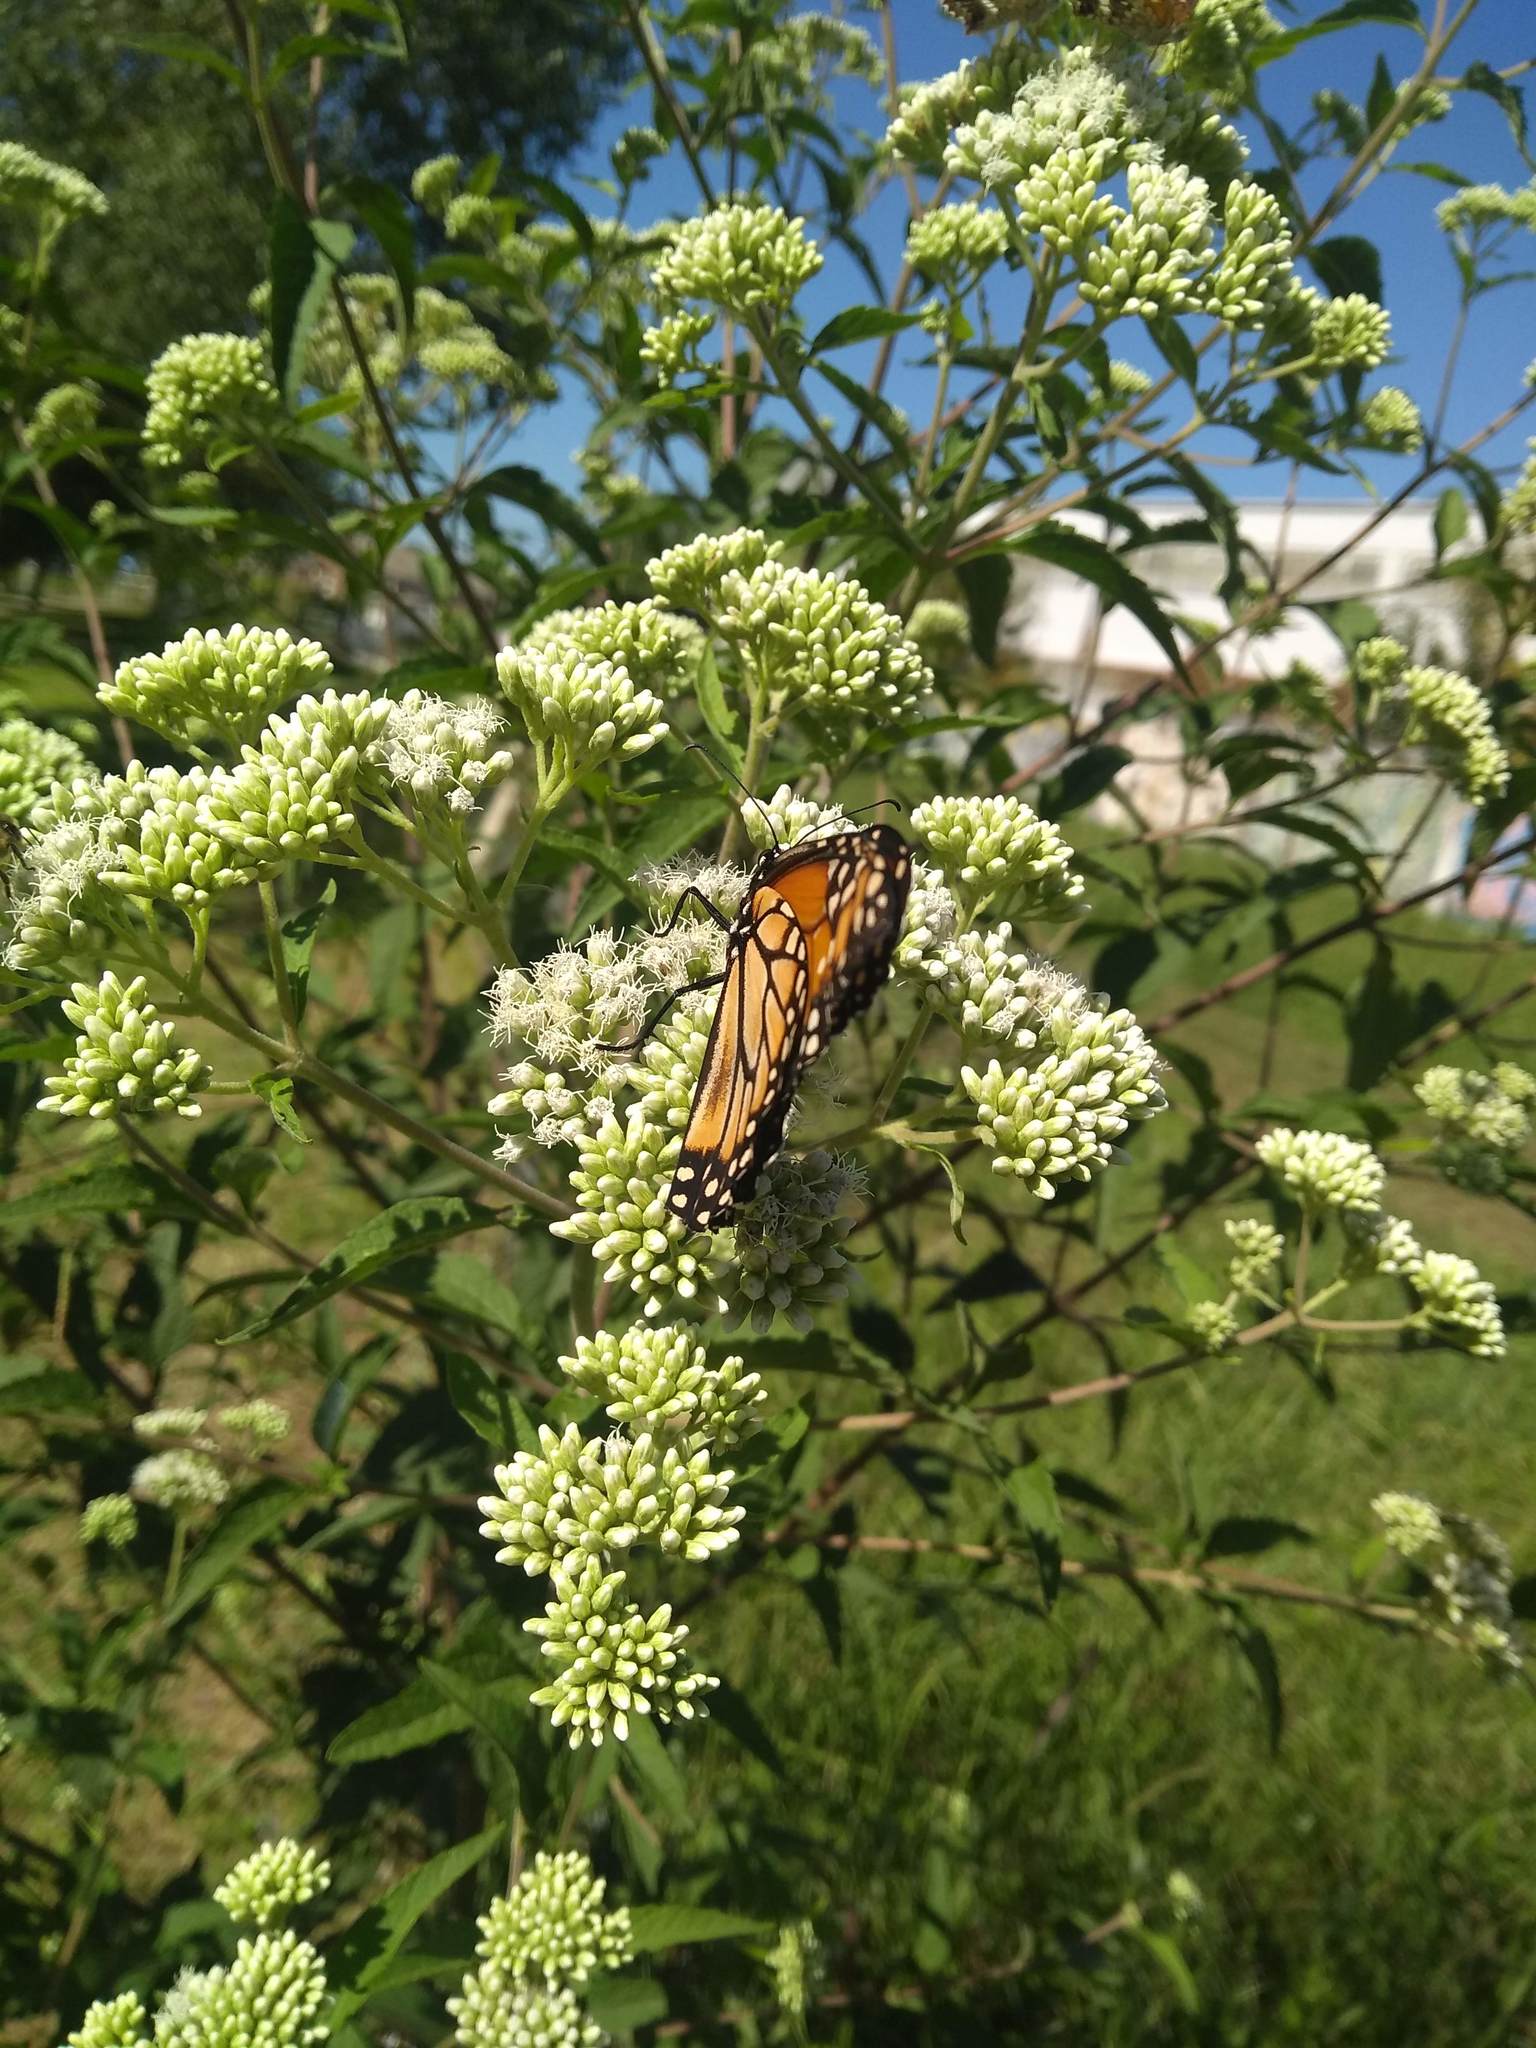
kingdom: Animalia
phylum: Arthropoda
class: Insecta
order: Lepidoptera
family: Nymphalidae
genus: Danaus
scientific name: Danaus erippus
